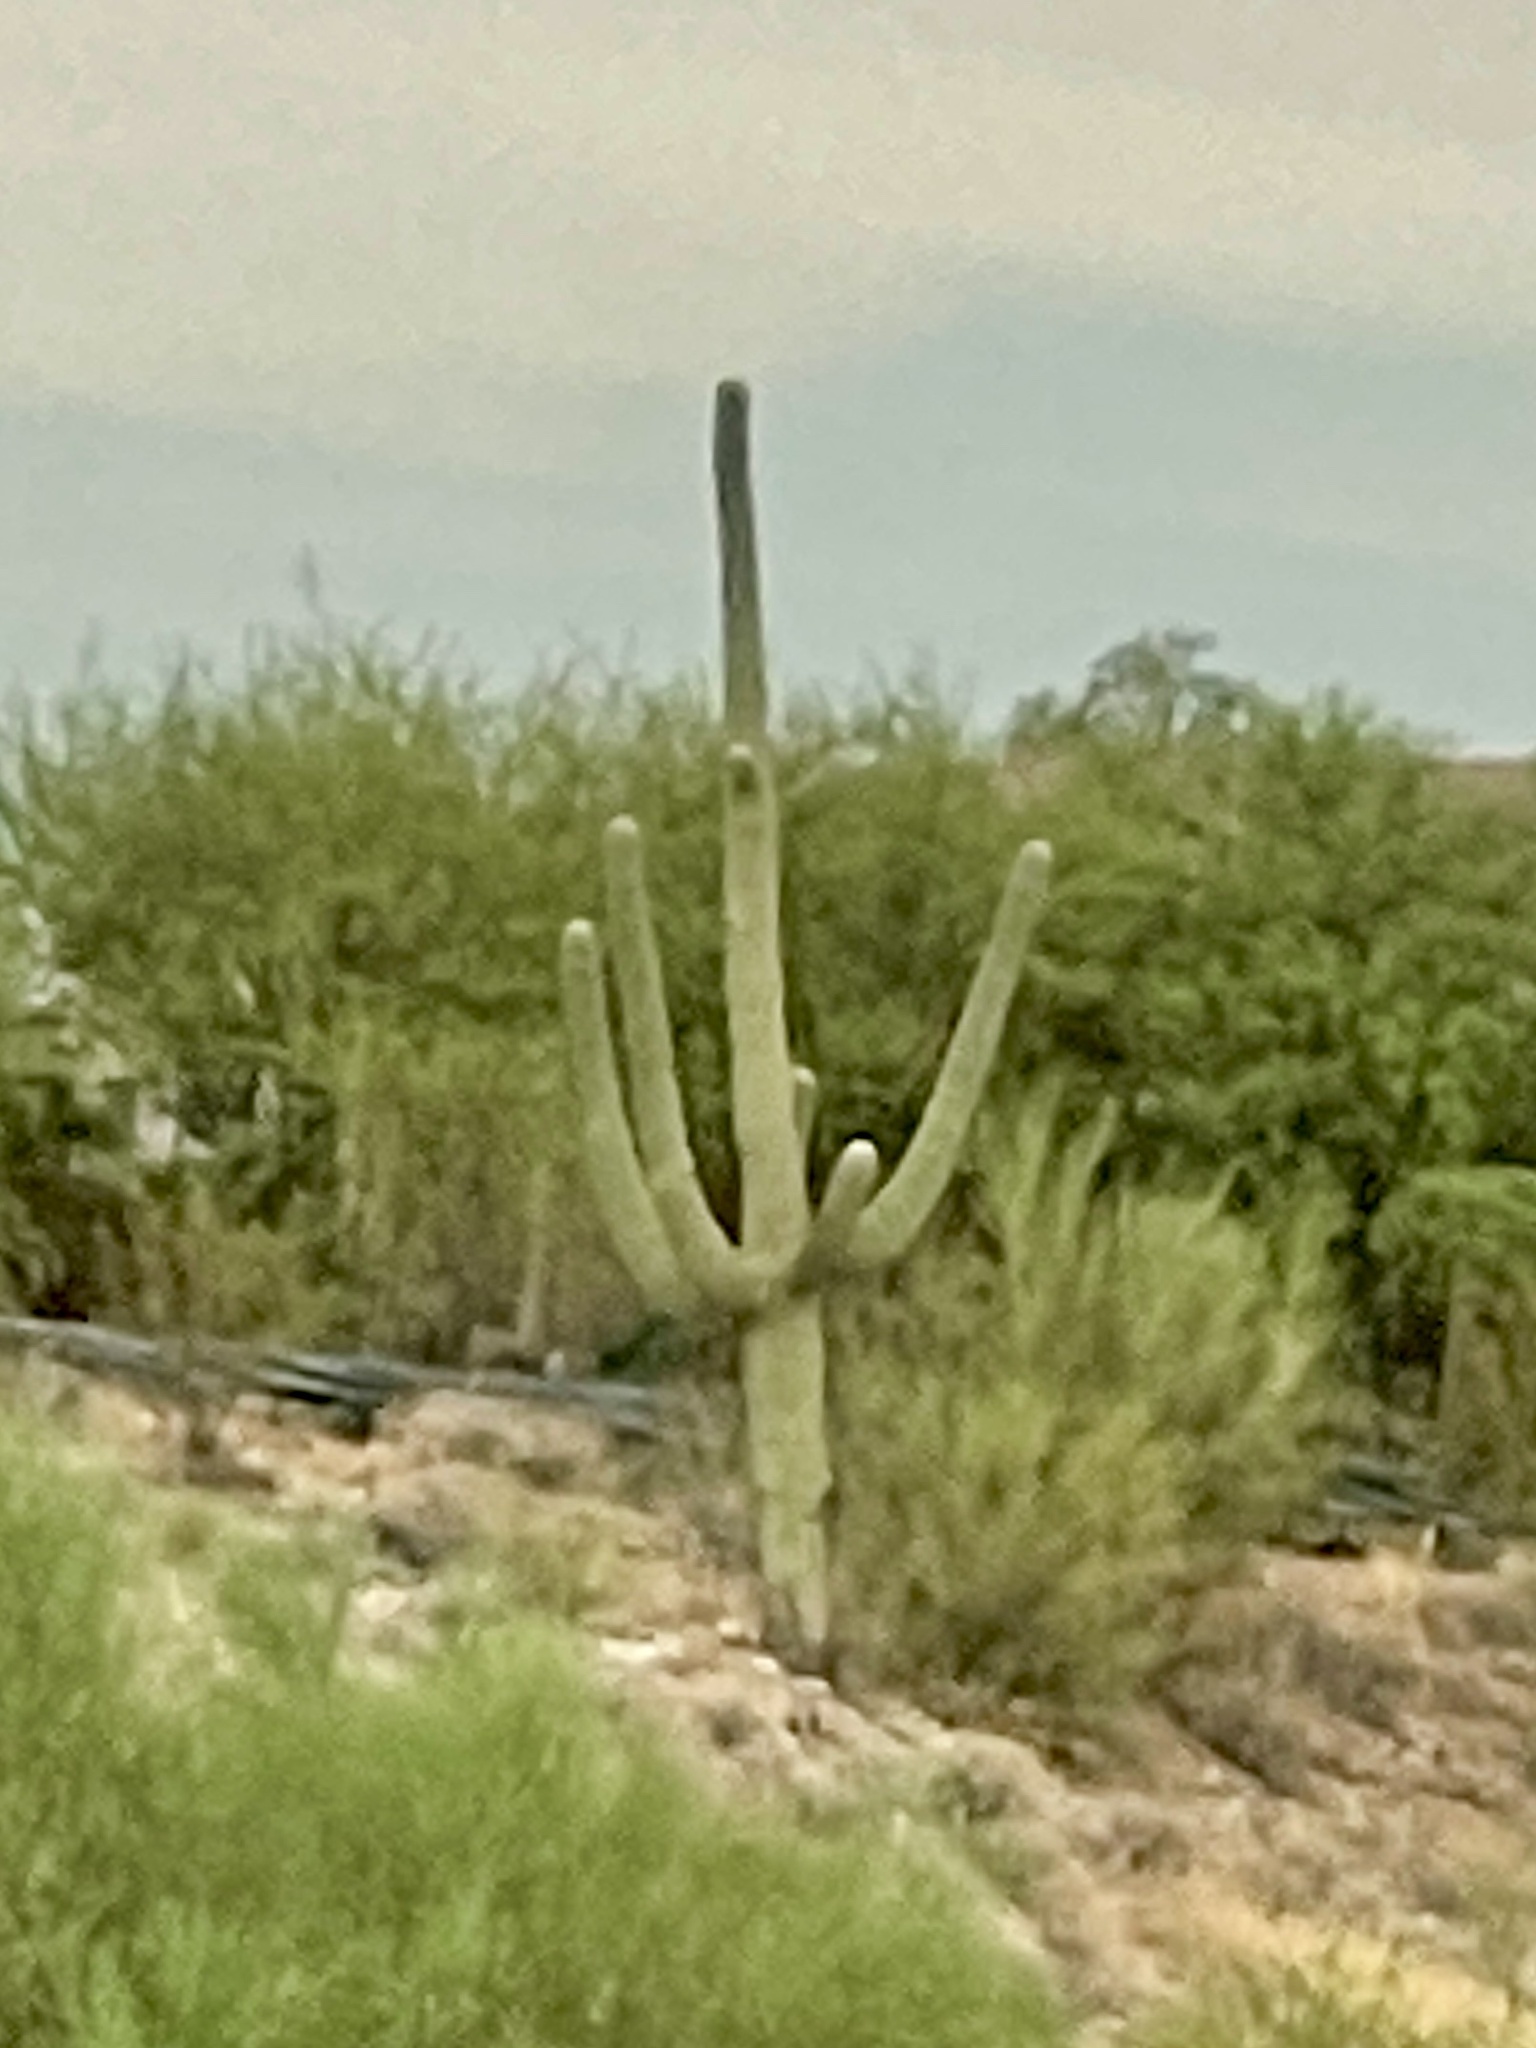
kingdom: Plantae
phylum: Tracheophyta
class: Magnoliopsida
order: Caryophyllales
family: Cactaceae
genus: Carnegiea
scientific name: Carnegiea gigantea
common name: Saguaro
